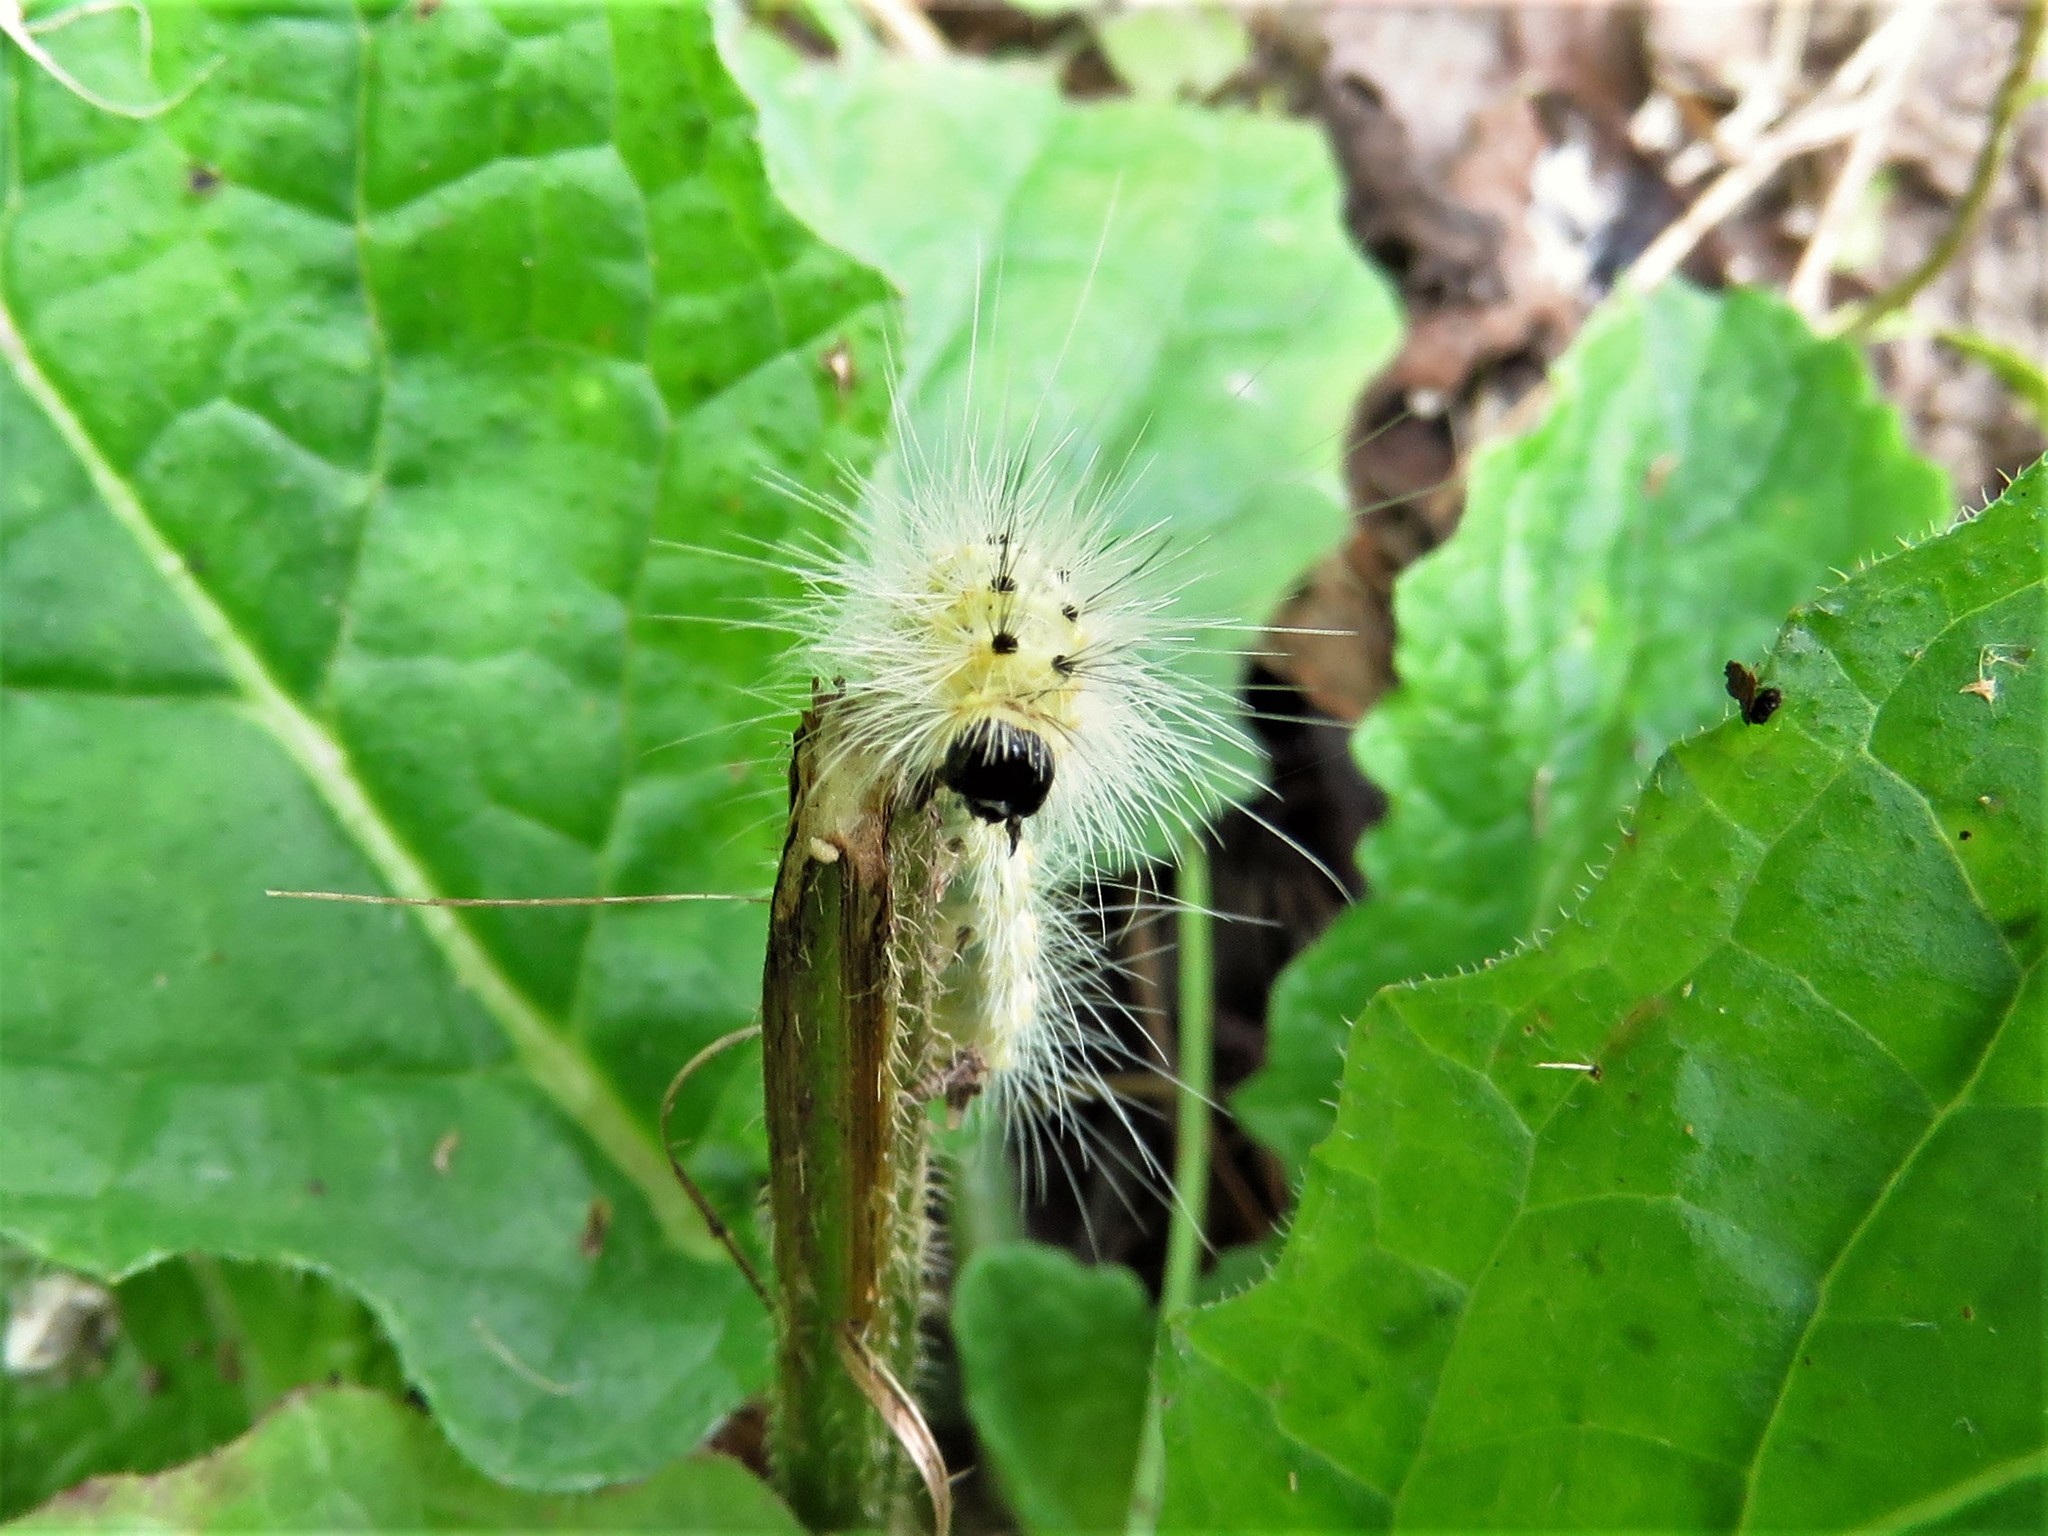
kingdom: Animalia
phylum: Arthropoda
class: Insecta
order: Lepidoptera
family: Erebidae
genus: Hyphantria
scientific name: Hyphantria cunea
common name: American white moth
